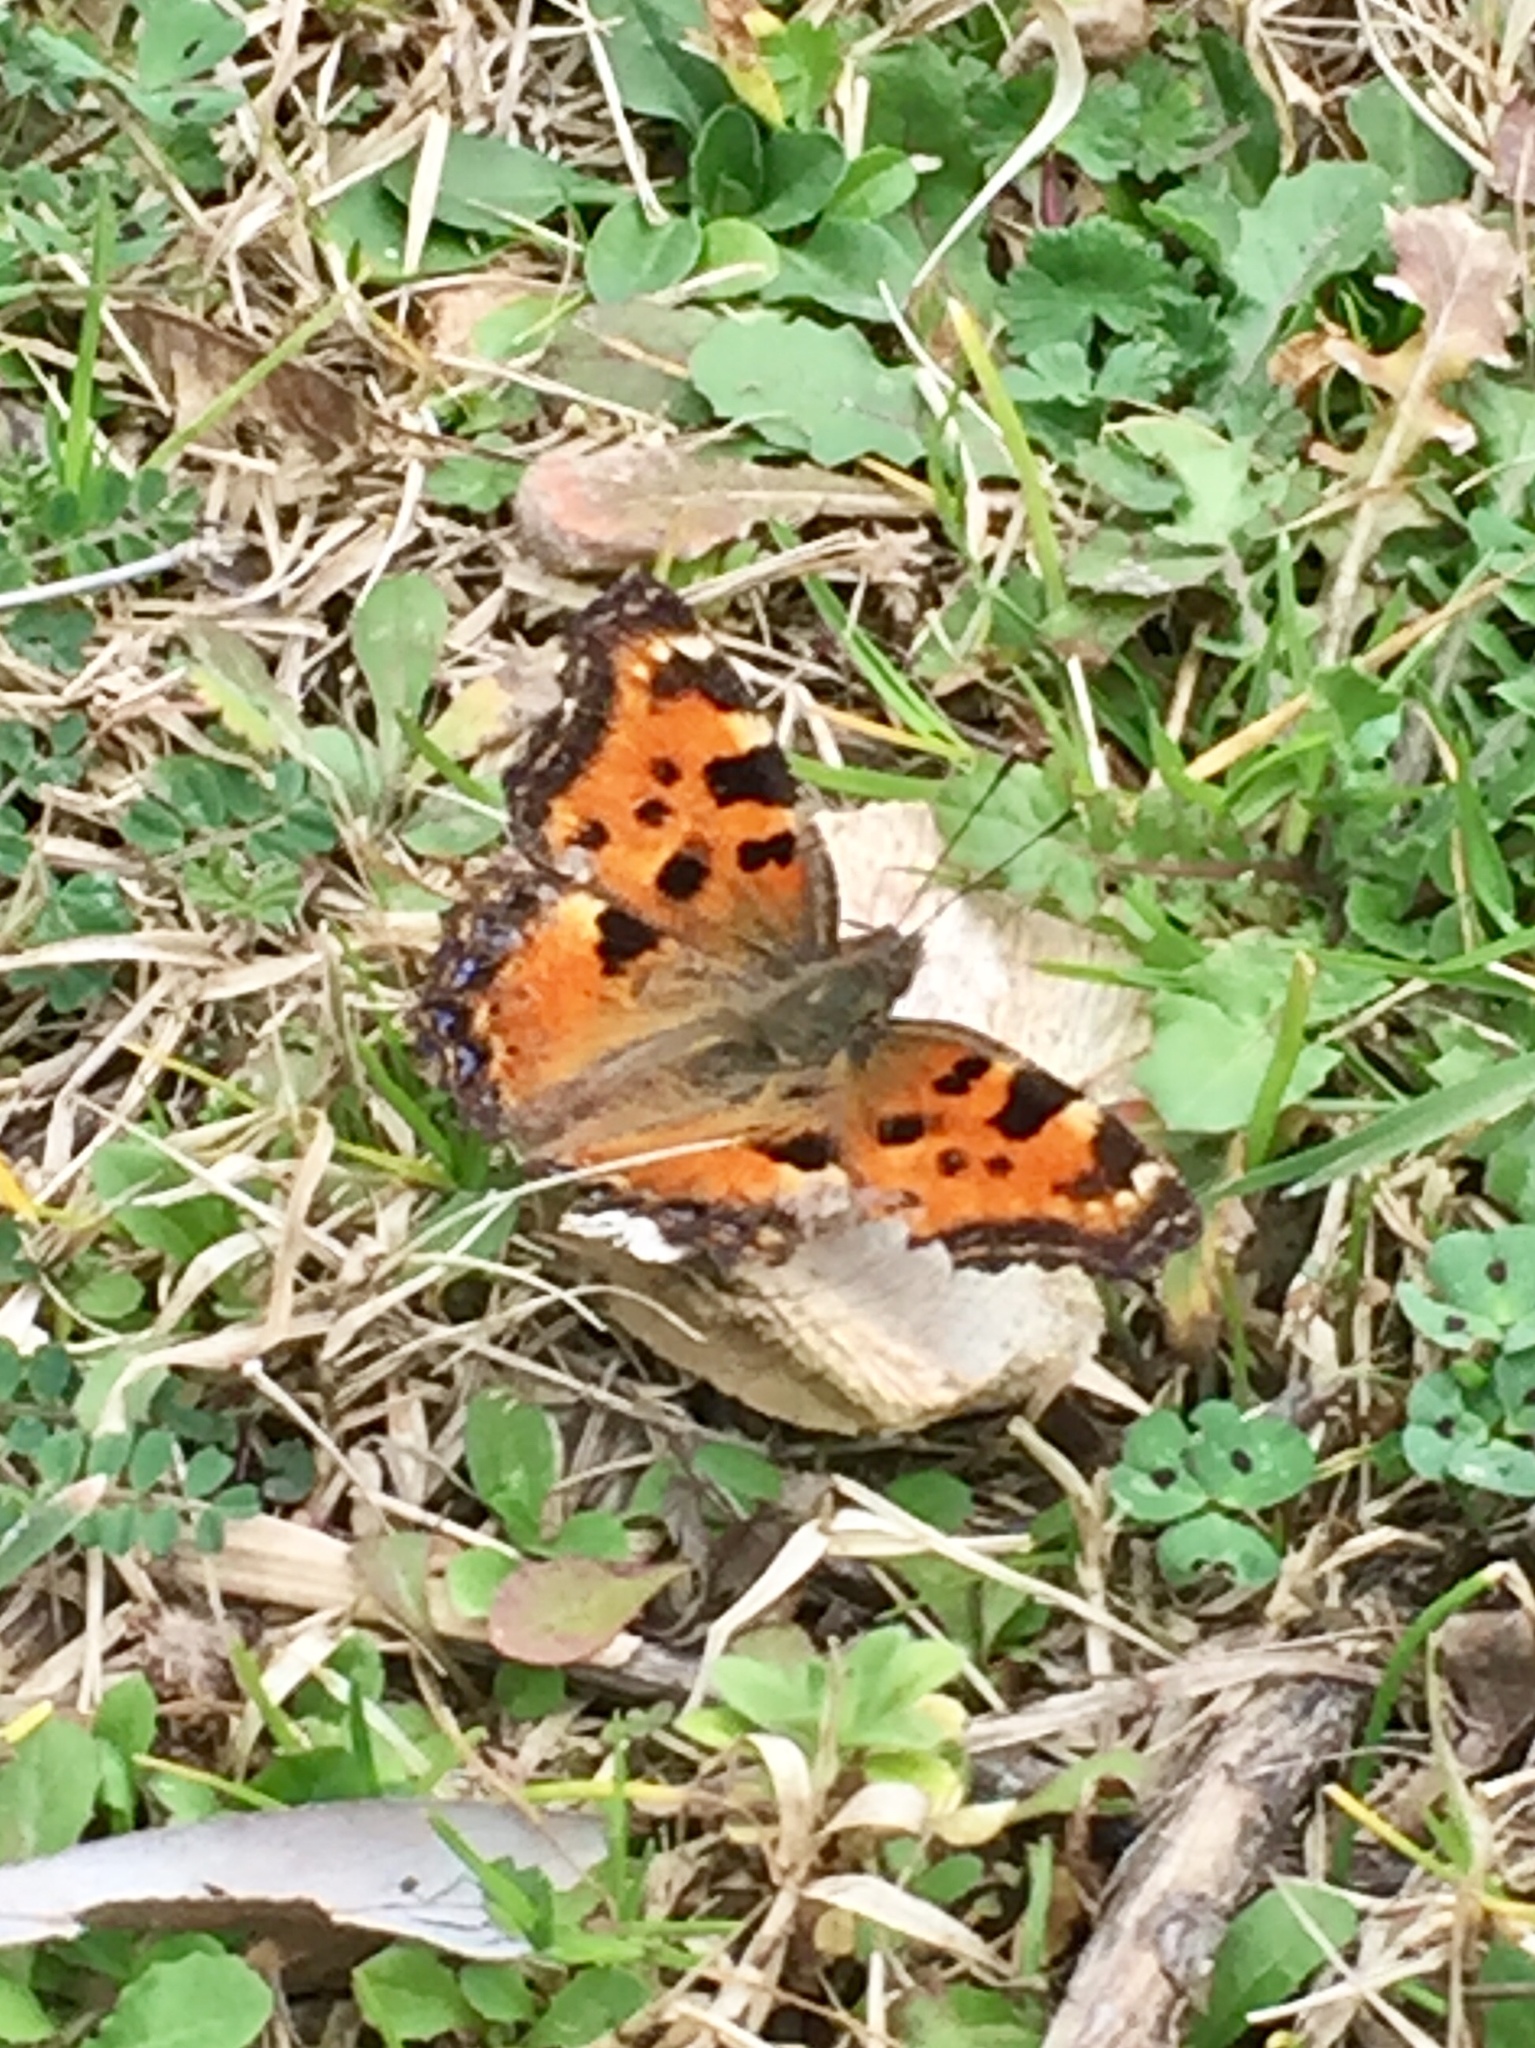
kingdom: Animalia
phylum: Arthropoda
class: Insecta
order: Lepidoptera
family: Nymphalidae
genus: Nymphalis
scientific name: Nymphalis polychloros
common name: Large tortoiseshell
